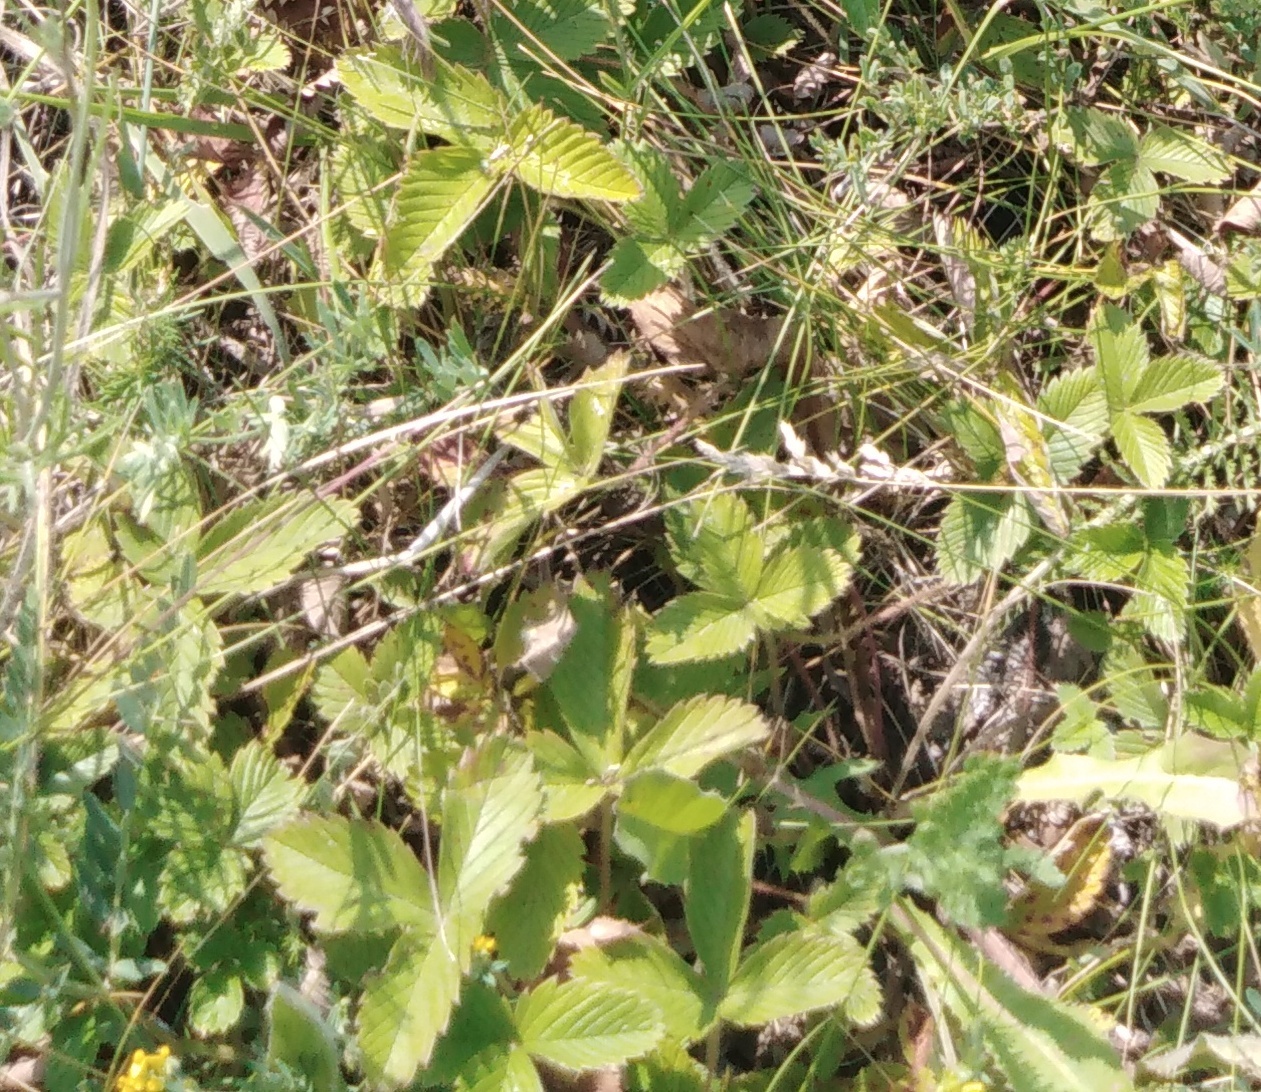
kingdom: Plantae
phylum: Tracheophyta
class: Magnoliopsida
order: Rosales
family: Rosaceae
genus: Fragaria
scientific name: Fragaria viridis
